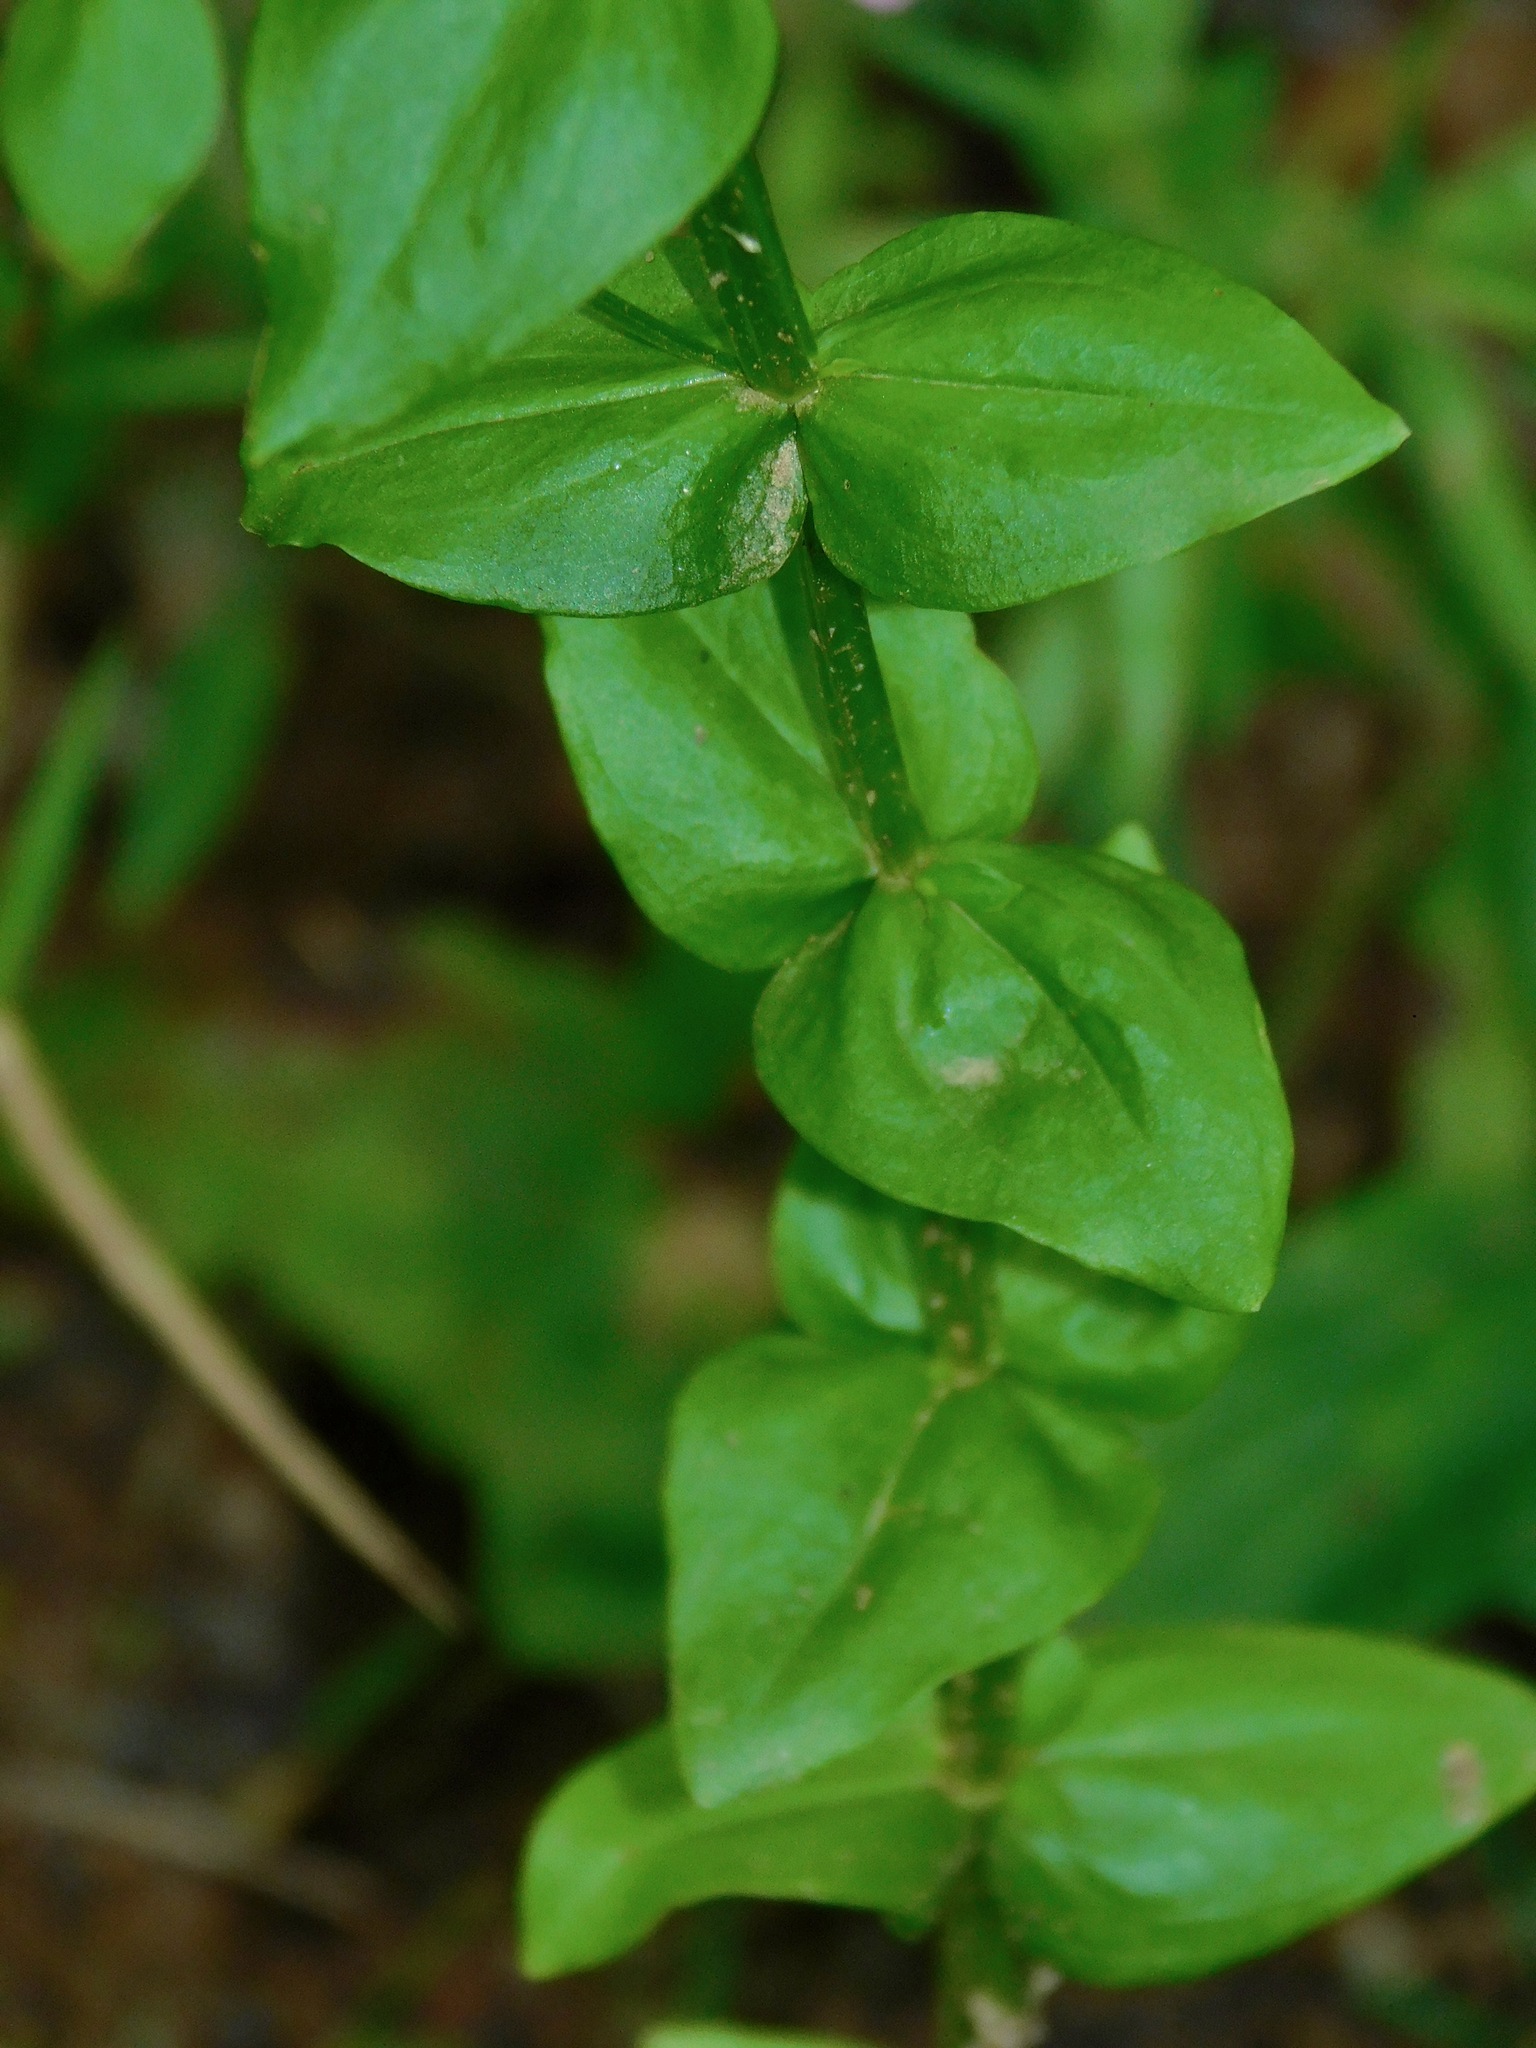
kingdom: Plantae
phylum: Tracheophyta
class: Magnoliopsida
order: Gentianales
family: Gentianaceae
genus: Sabatia
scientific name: Sabatia angularis
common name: Rose-pink
